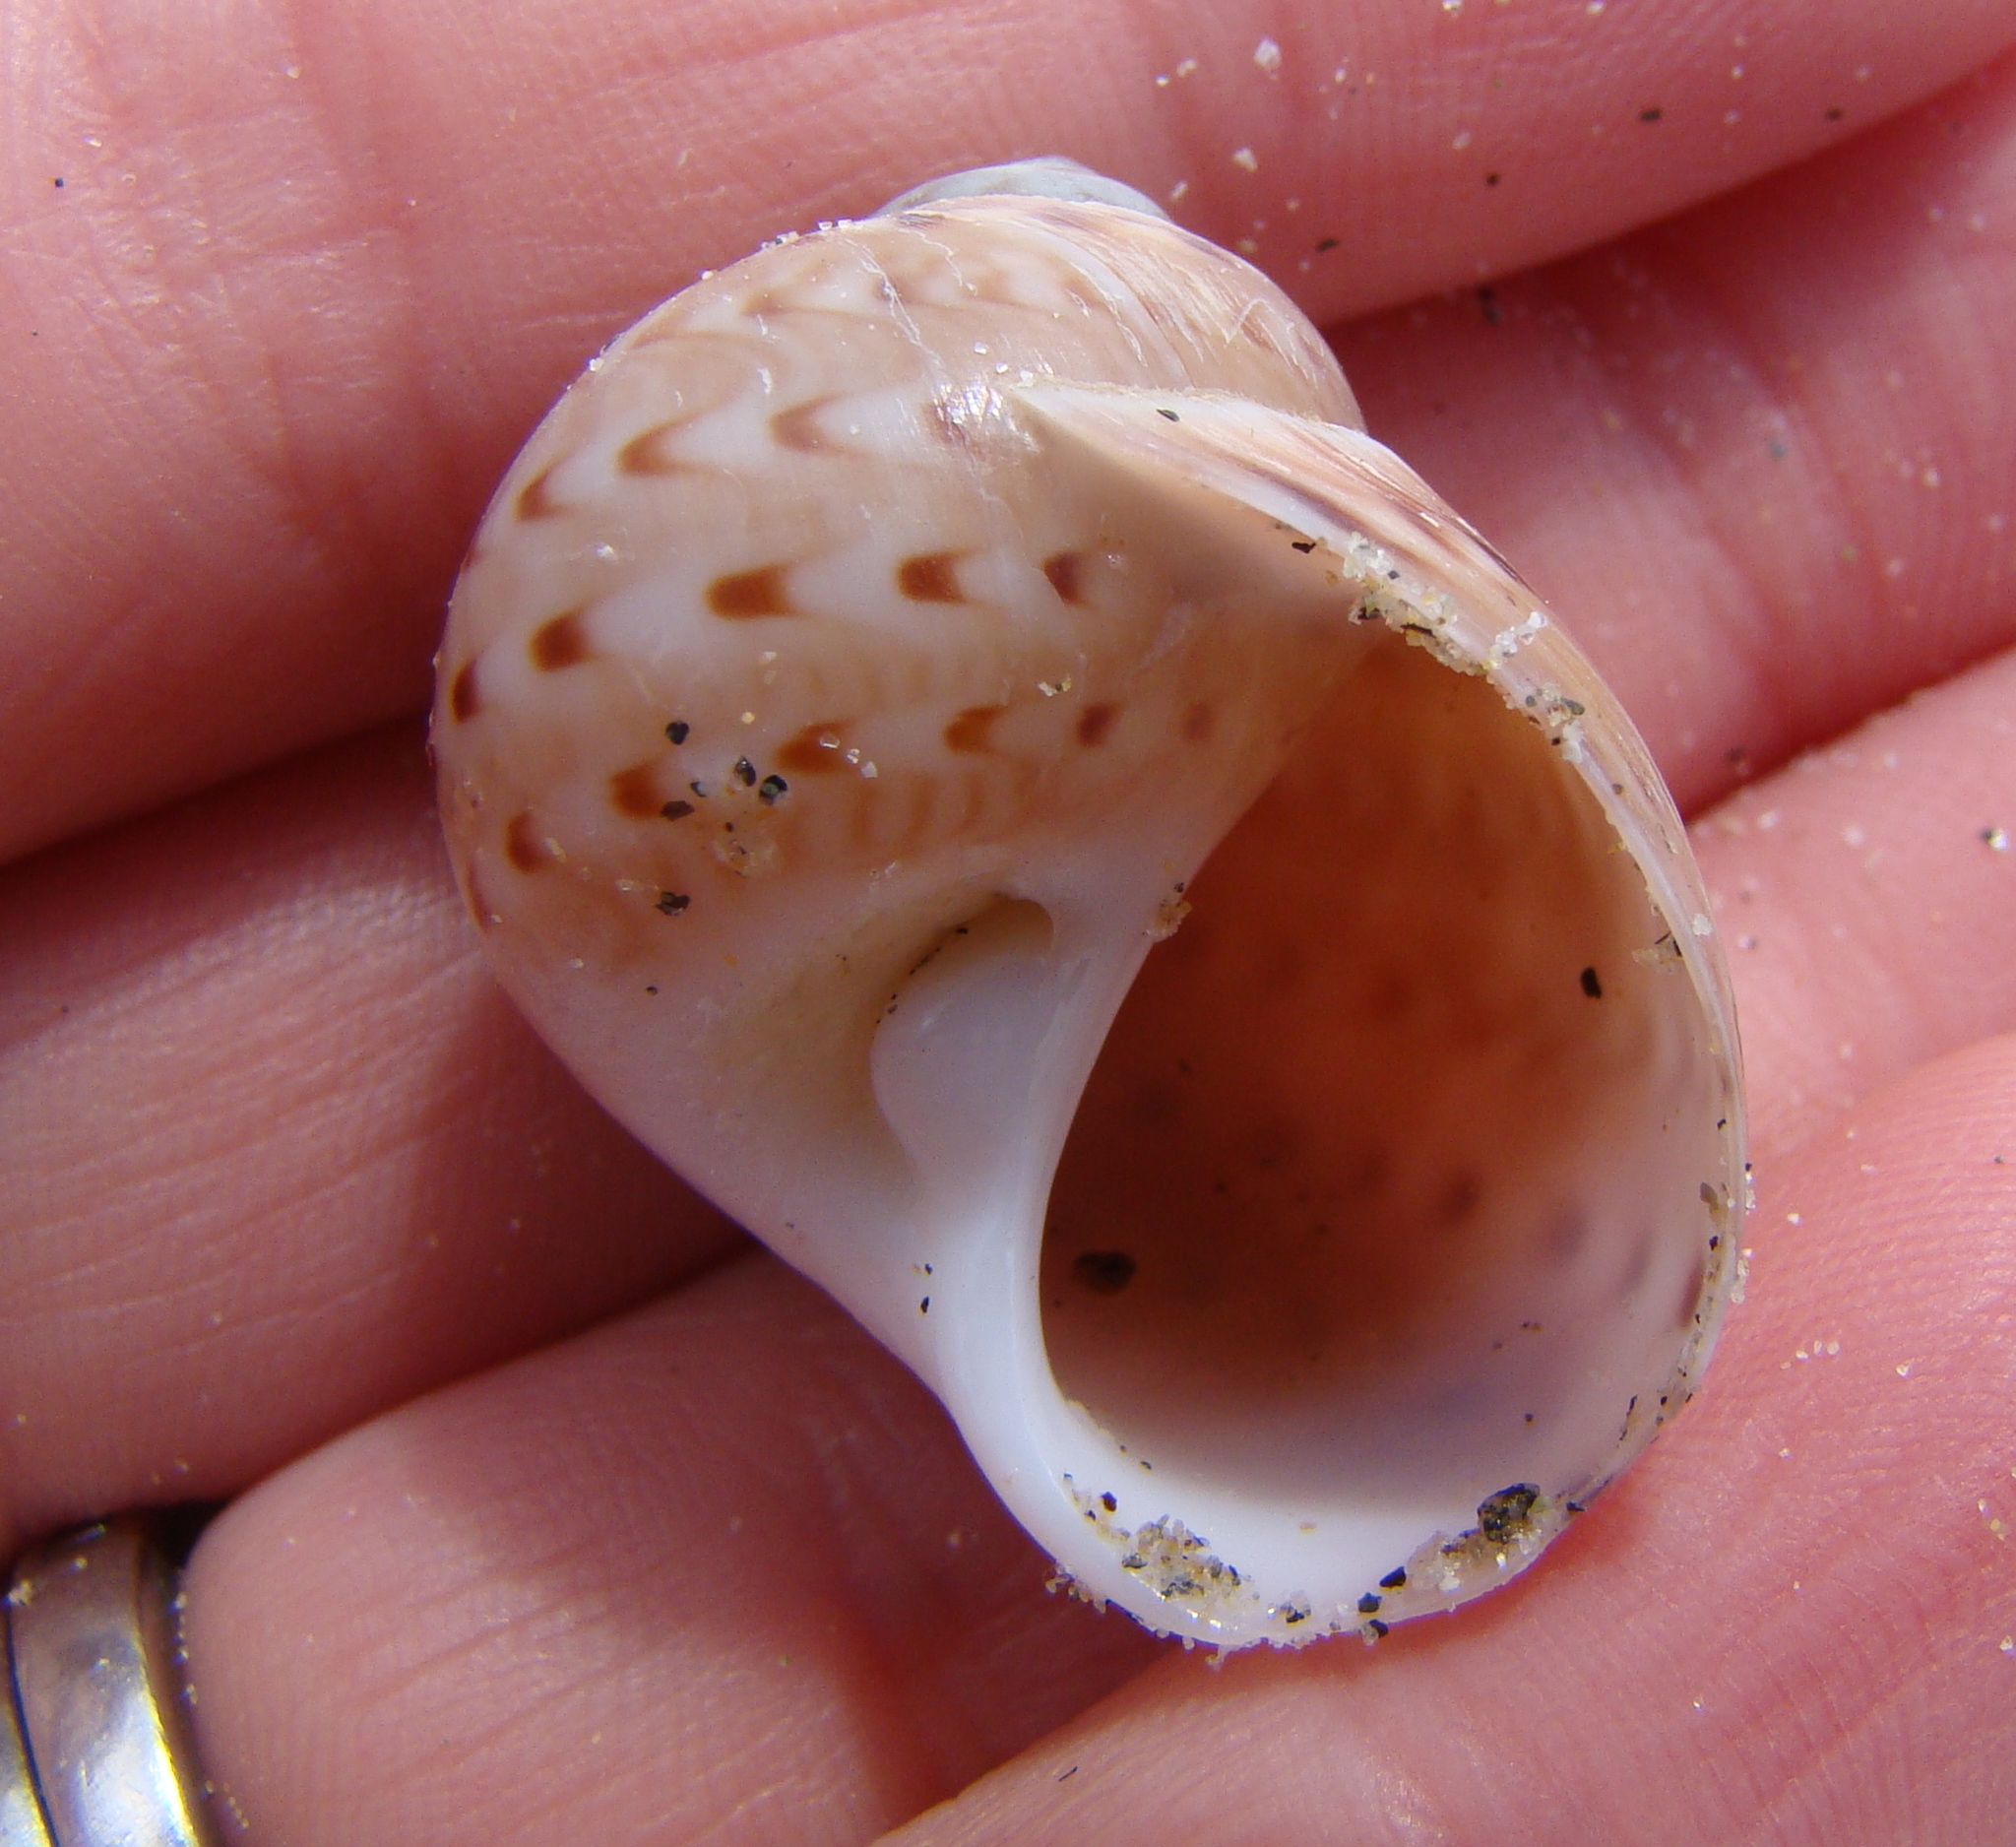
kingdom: Animalia
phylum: Mollusca
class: Gastropoda
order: Littorinimorpha
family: Naticidae
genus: Tanea
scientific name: Tanea zelandica
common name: New zealand moonsnail
